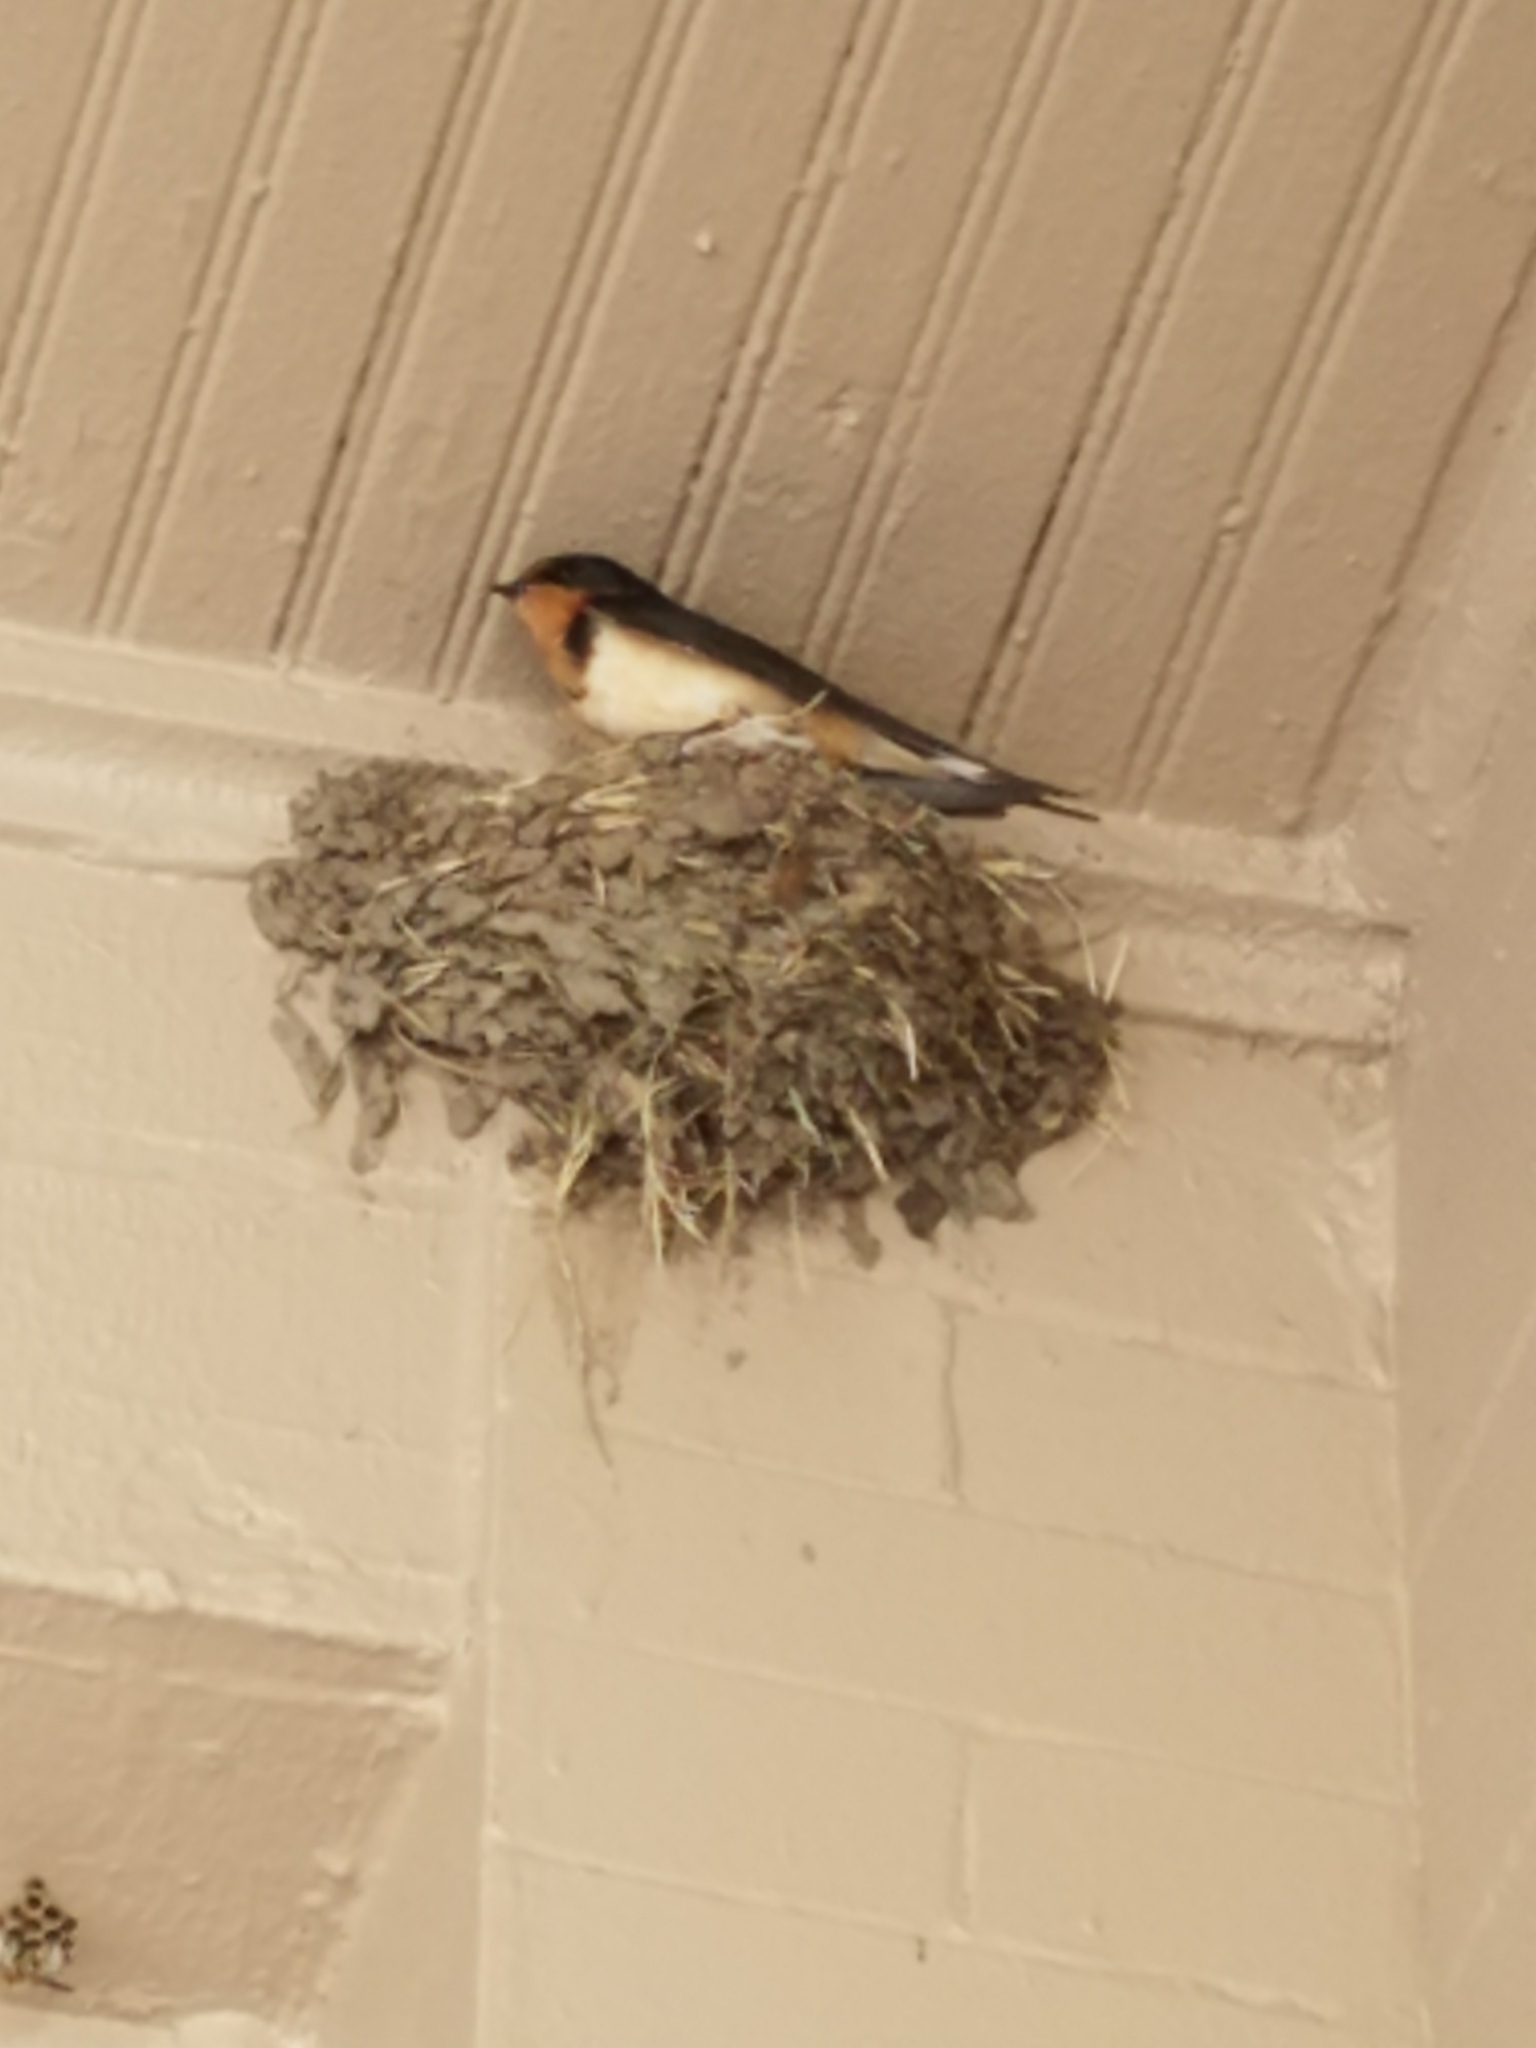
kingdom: Animalia
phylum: Chordata
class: Aves
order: Passeriformes
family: Hirundinidae
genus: Hirundo
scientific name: Hirundo rustica
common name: Barn swallow
